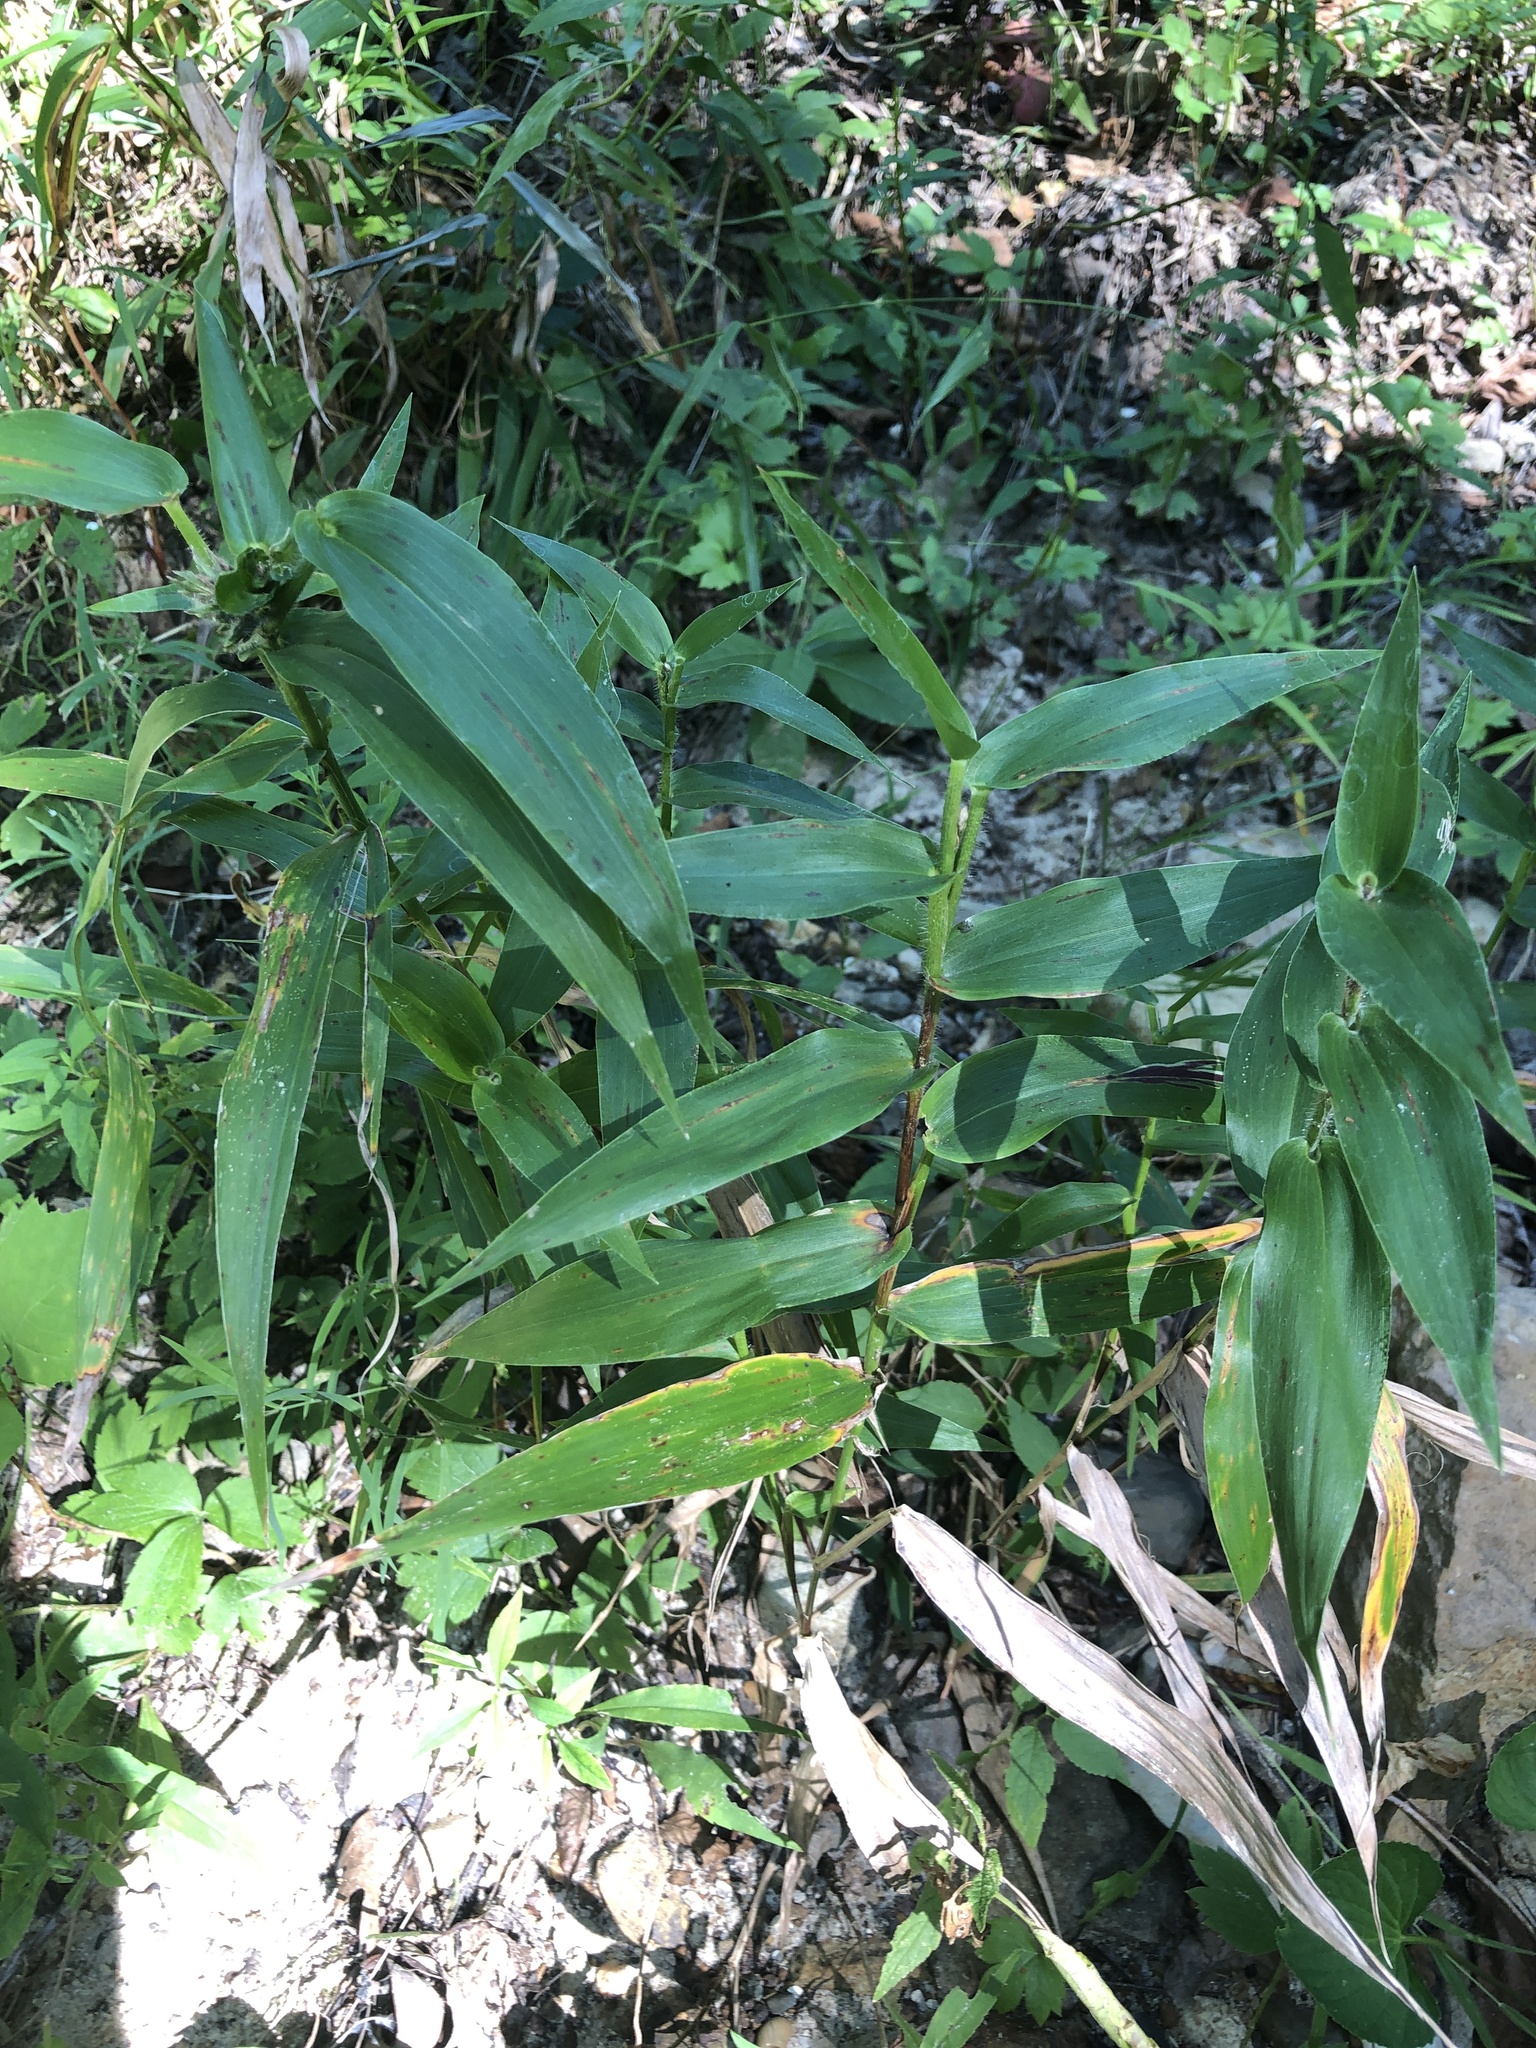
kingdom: Plantae
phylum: Tracheophyta
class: Liliopsida
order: Poales
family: Poaceae
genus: Dichanthelium
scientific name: Dichanthelium clandestinum
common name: Deer-tongue grass
